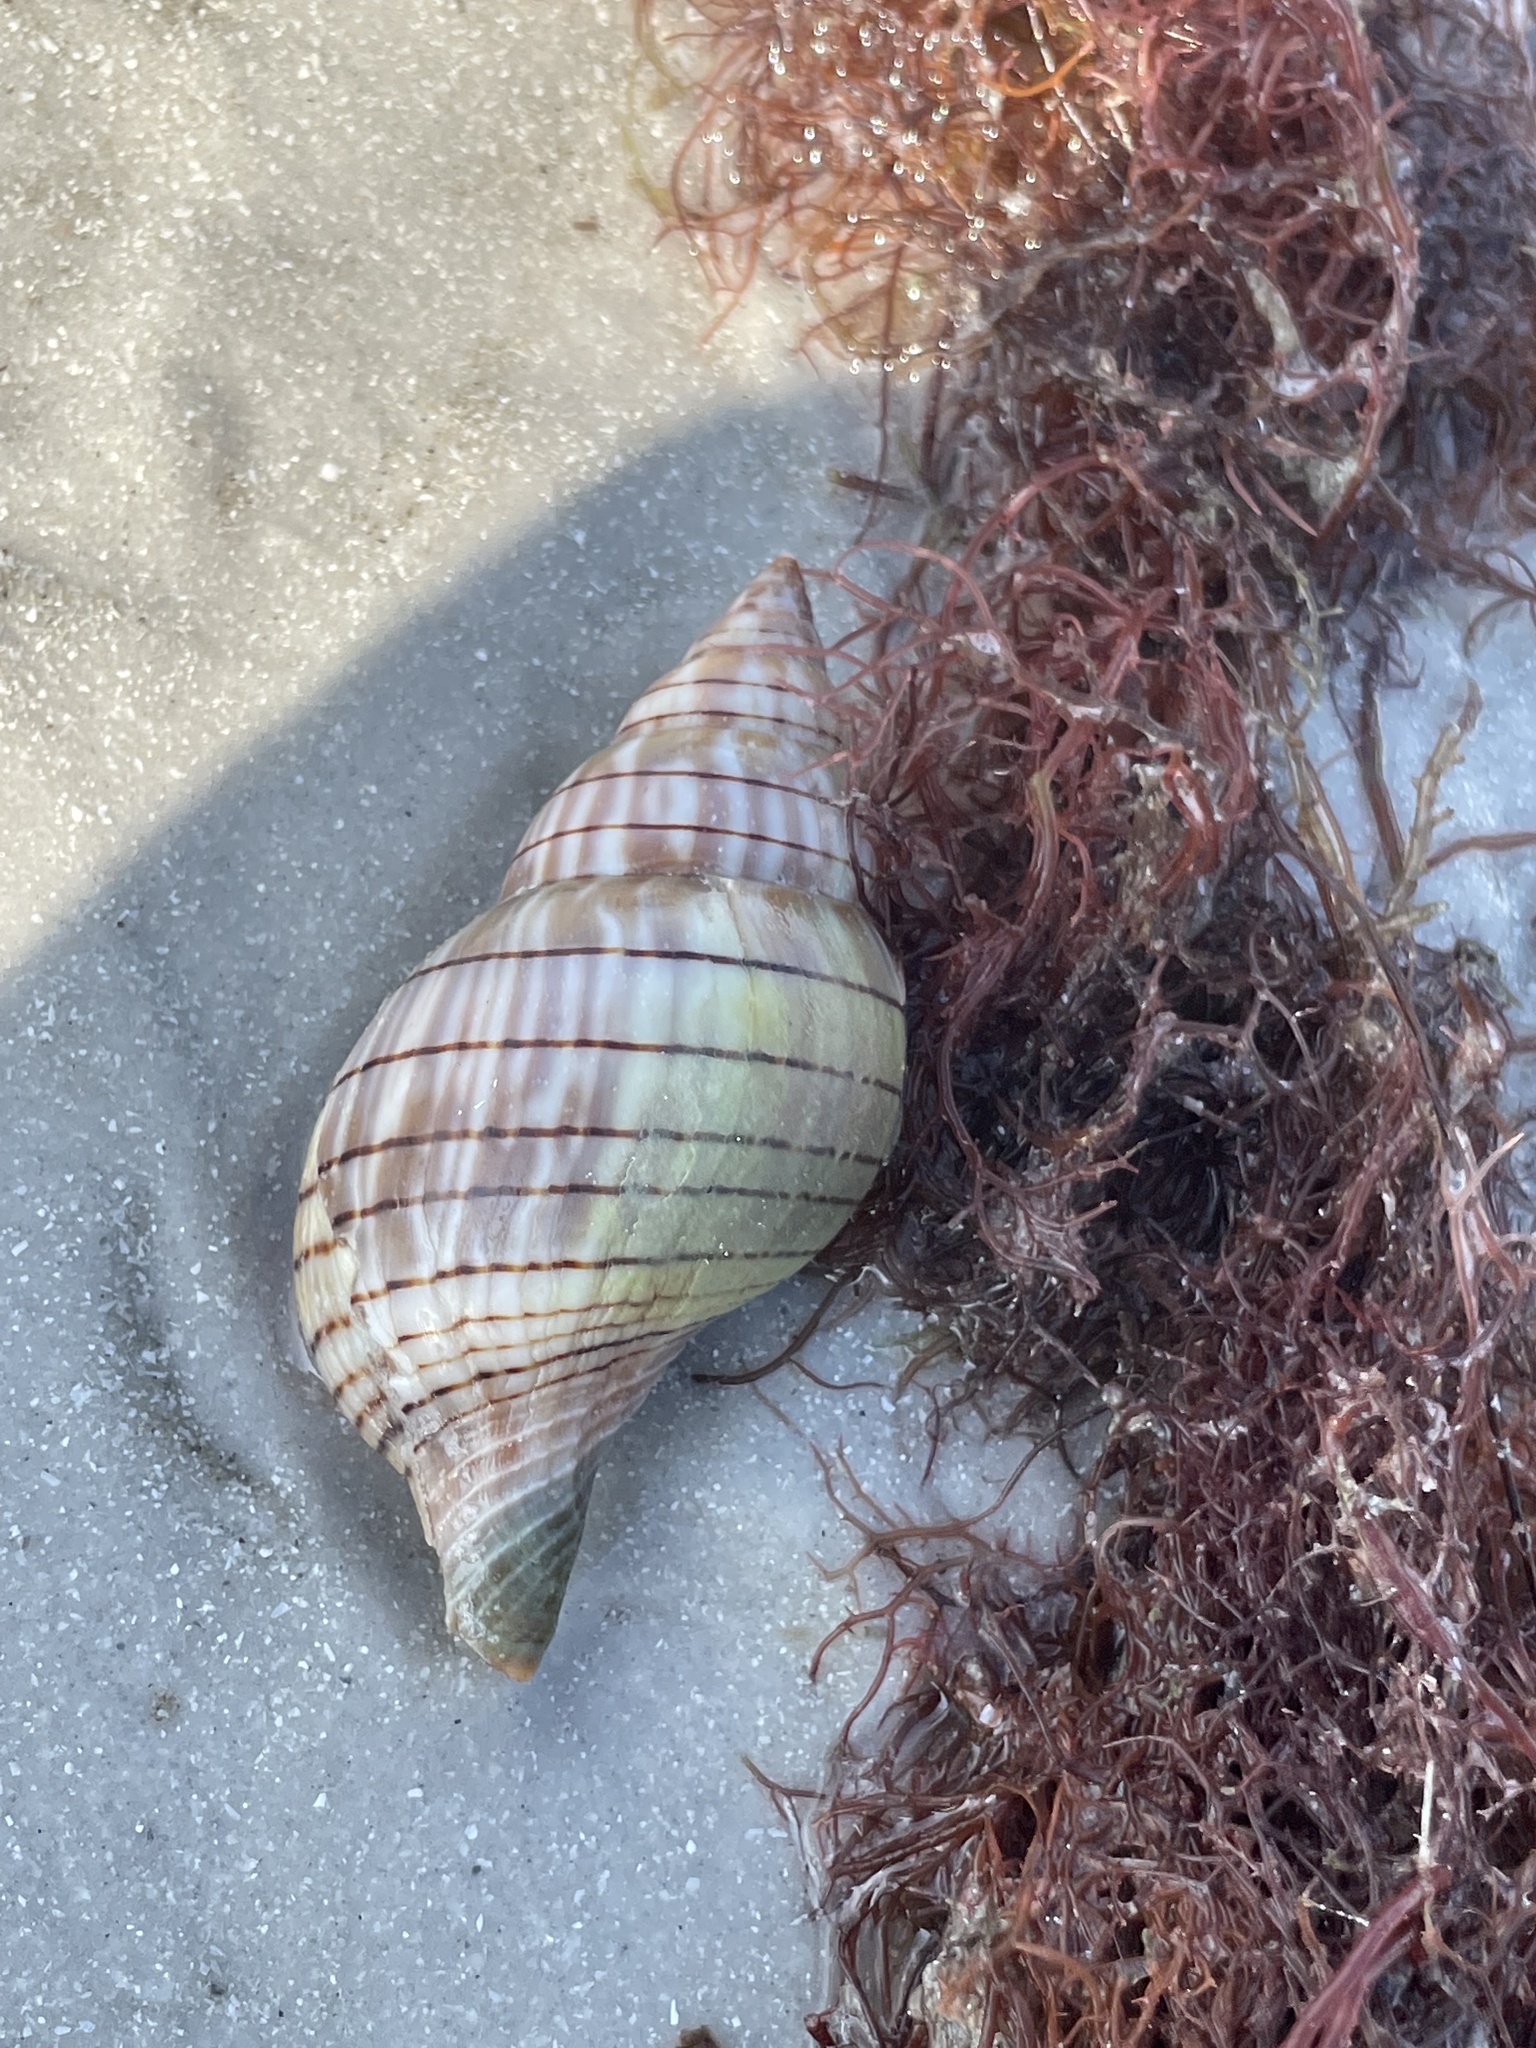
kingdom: Animalia
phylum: Mollusca
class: Gastropoda
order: Neogastropoda
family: Fasciolariidae
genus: Cinctura
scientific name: Cinctura hunteria
